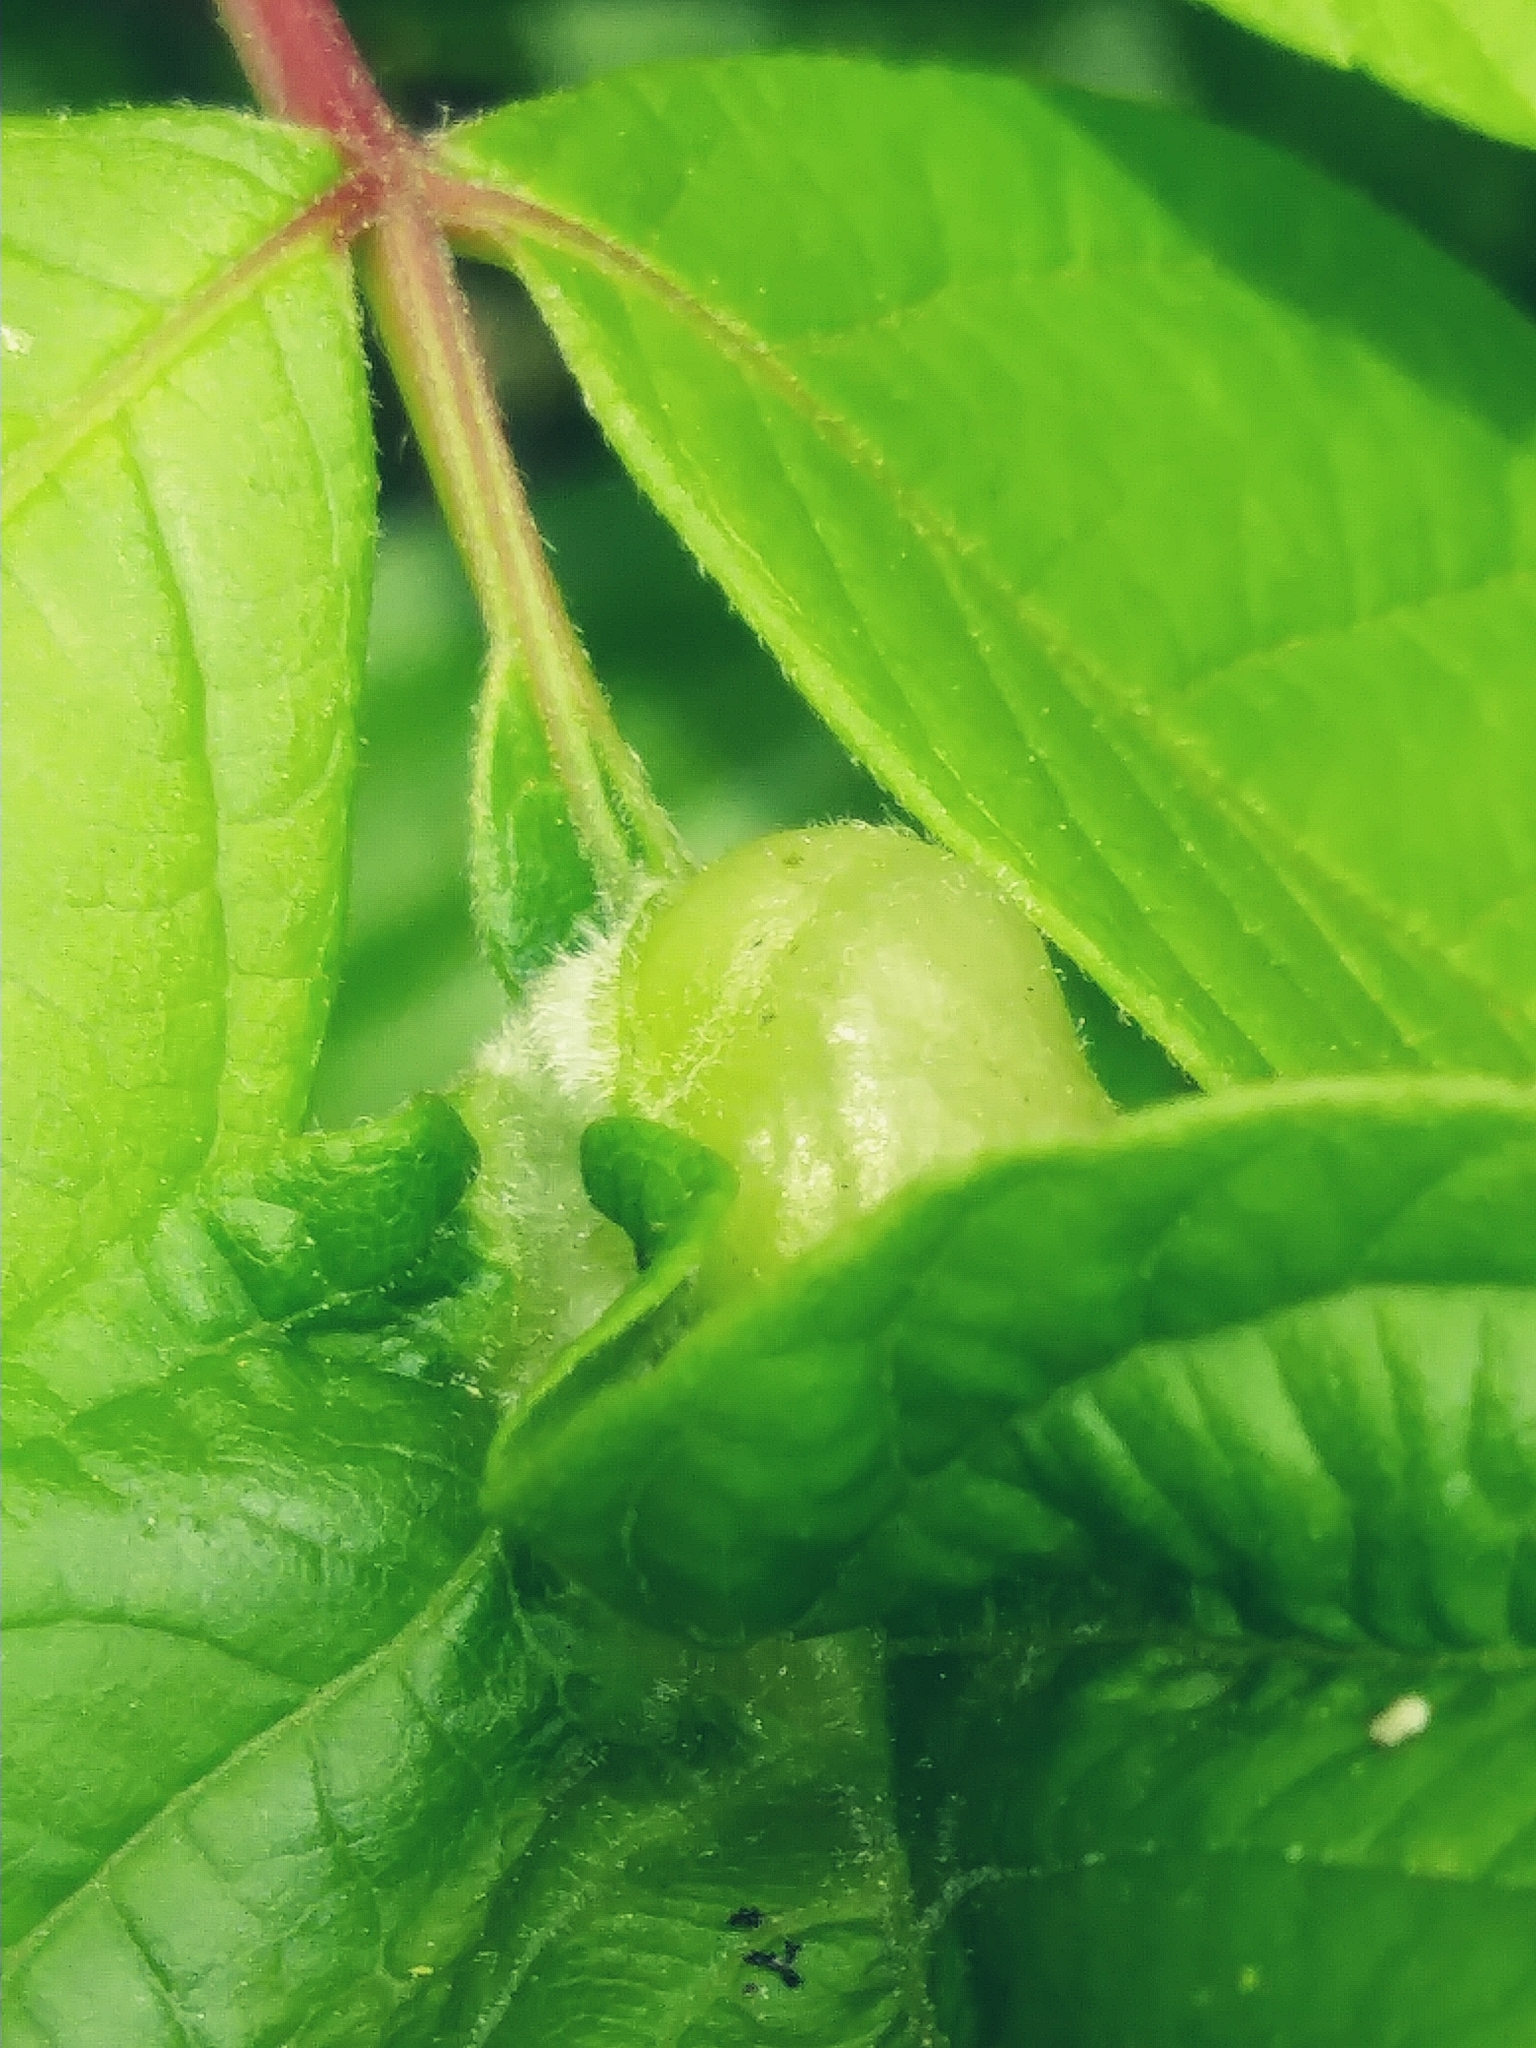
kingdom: Animalia
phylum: Arthropoda
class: Insecta
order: Diptera
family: Cecidomyiidae
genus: Contarinia
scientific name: Contarinia negundinis
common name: Boxelder budgall midge
